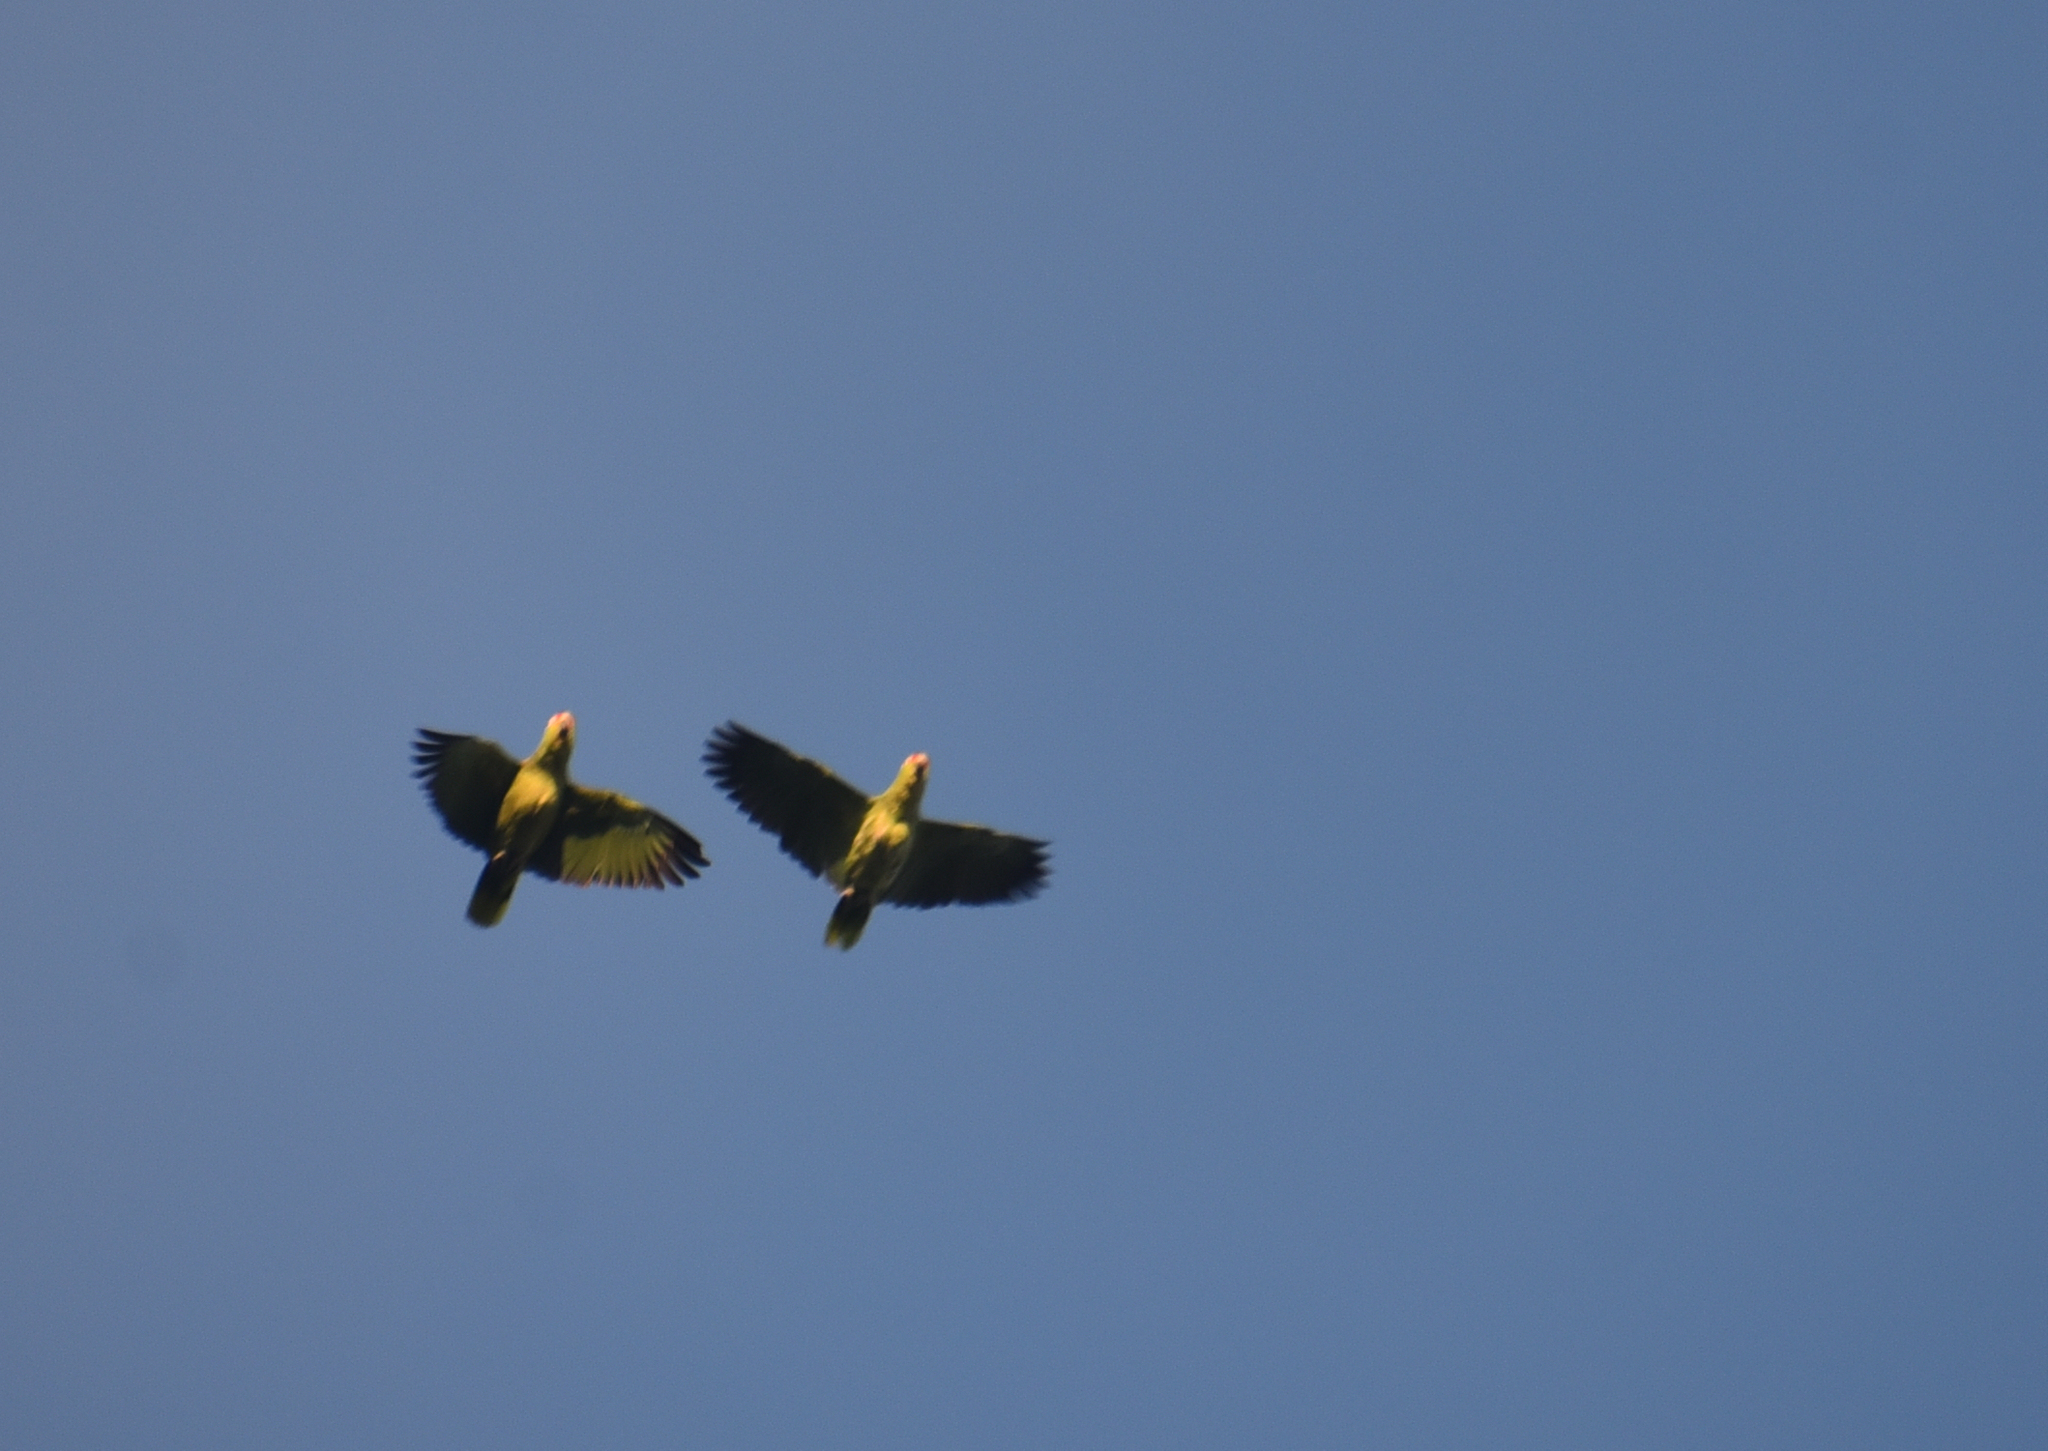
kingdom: Animalia
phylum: Chordata
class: Aves
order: Psittaciformes
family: Psittacidae
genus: Amazona
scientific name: Amazona autumnalis
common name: Red-lored amazon
